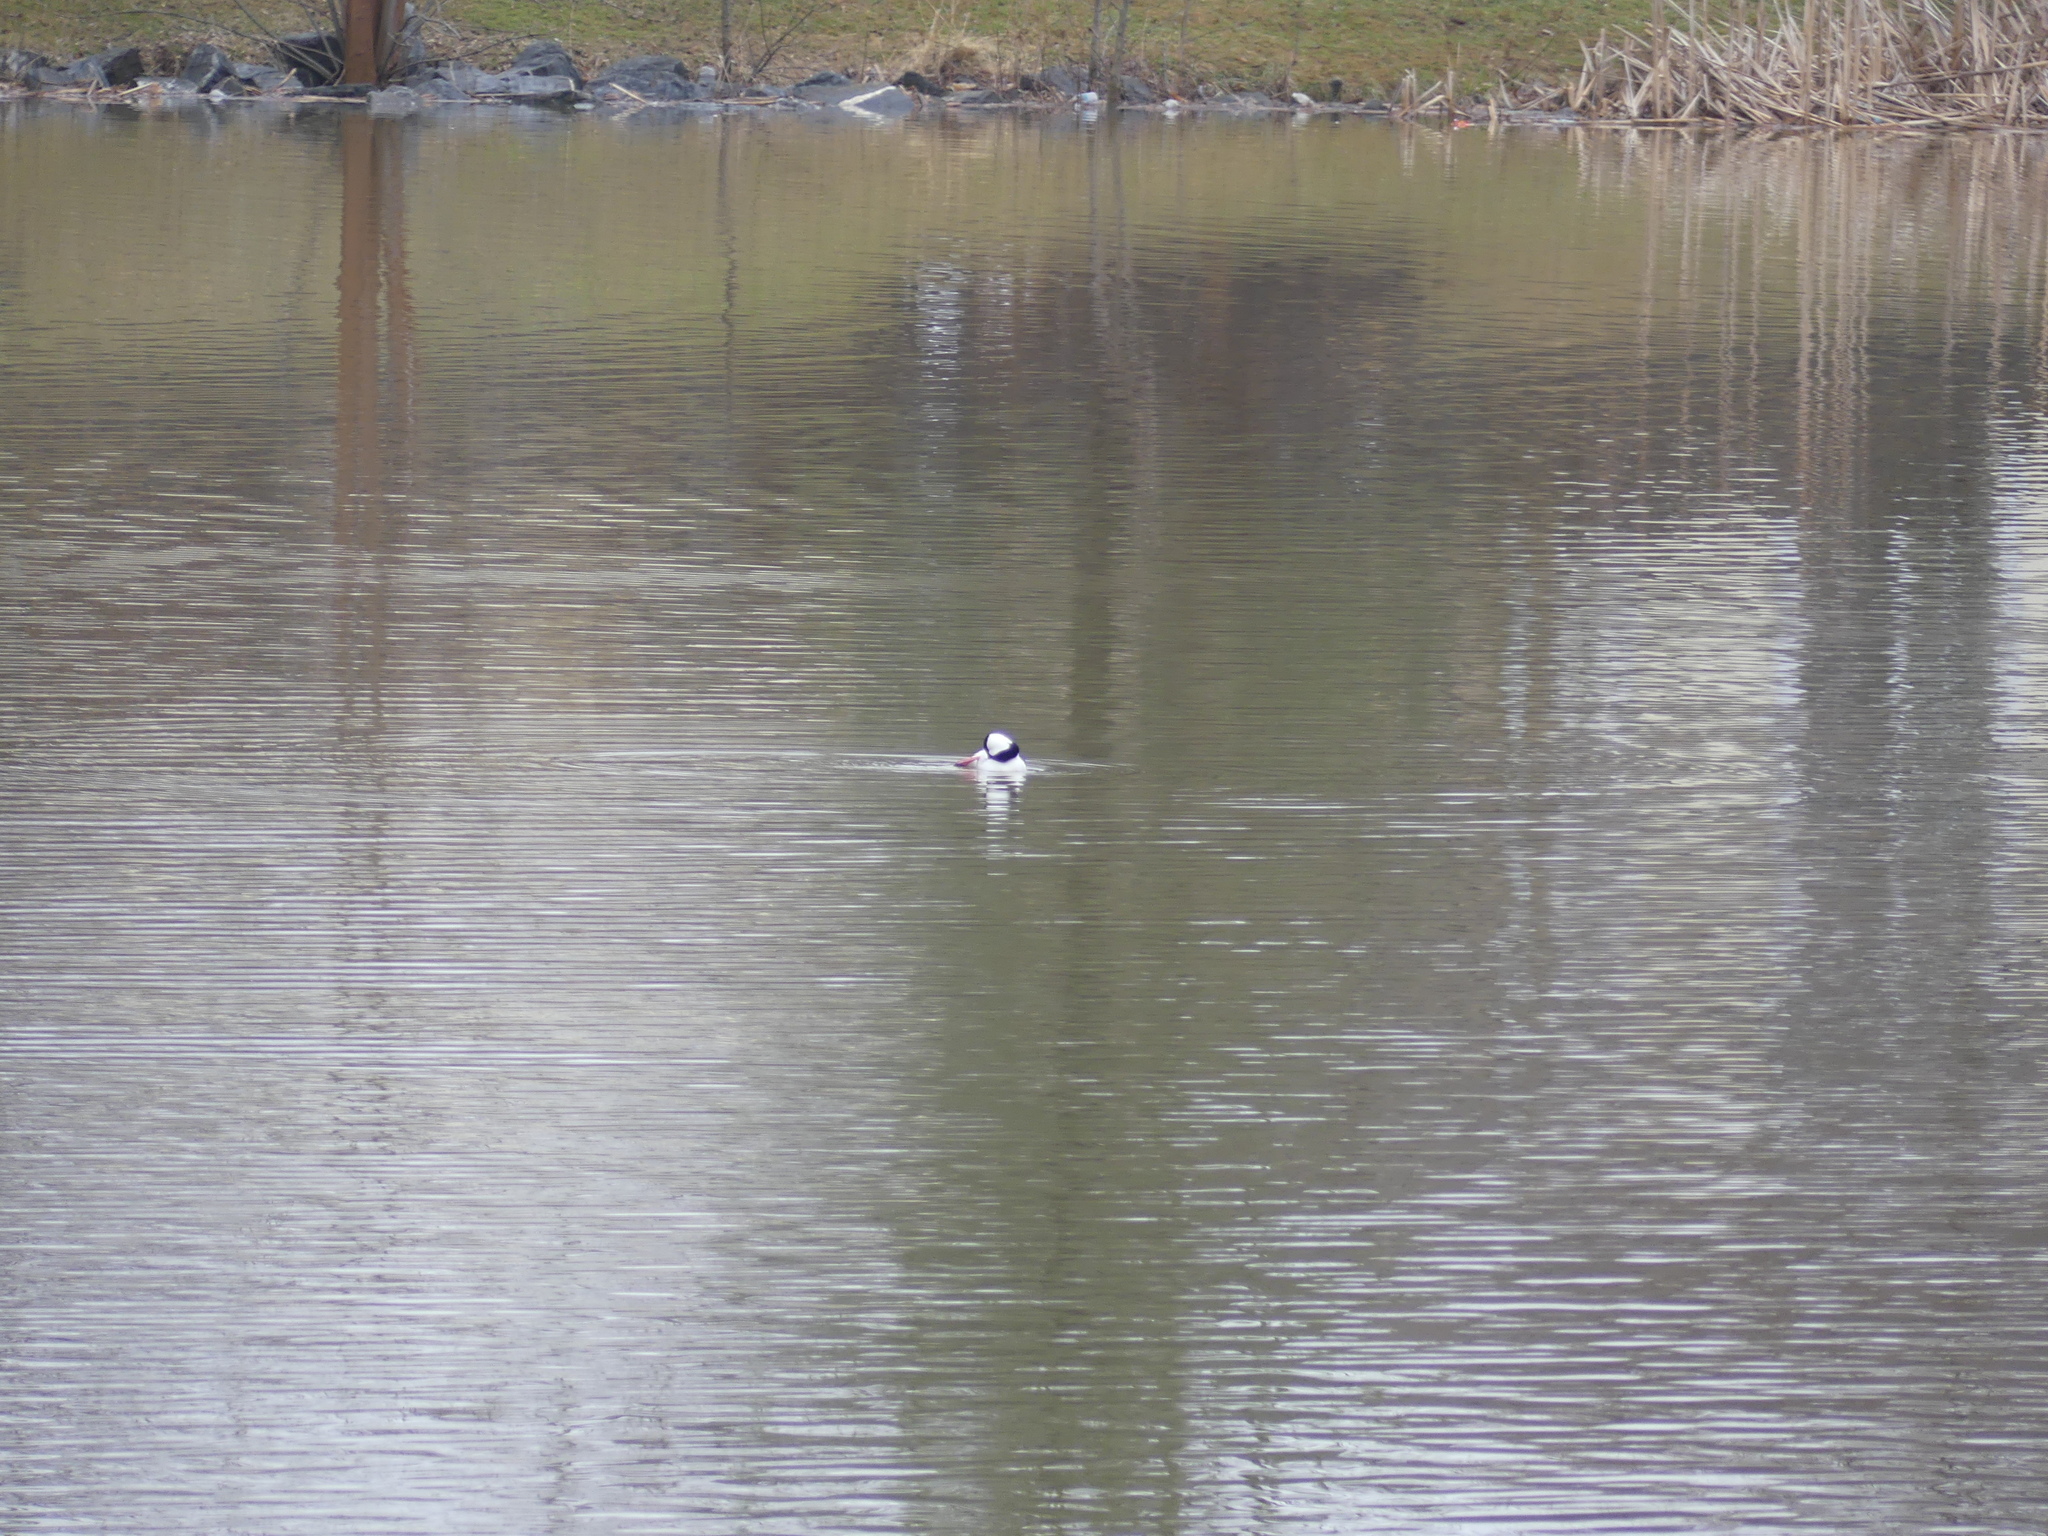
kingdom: Animalia
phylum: Chordata
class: Aves
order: Anseriformes
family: Anatidae
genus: Bucephala
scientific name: Bucephala albeola
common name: Bufflehead
